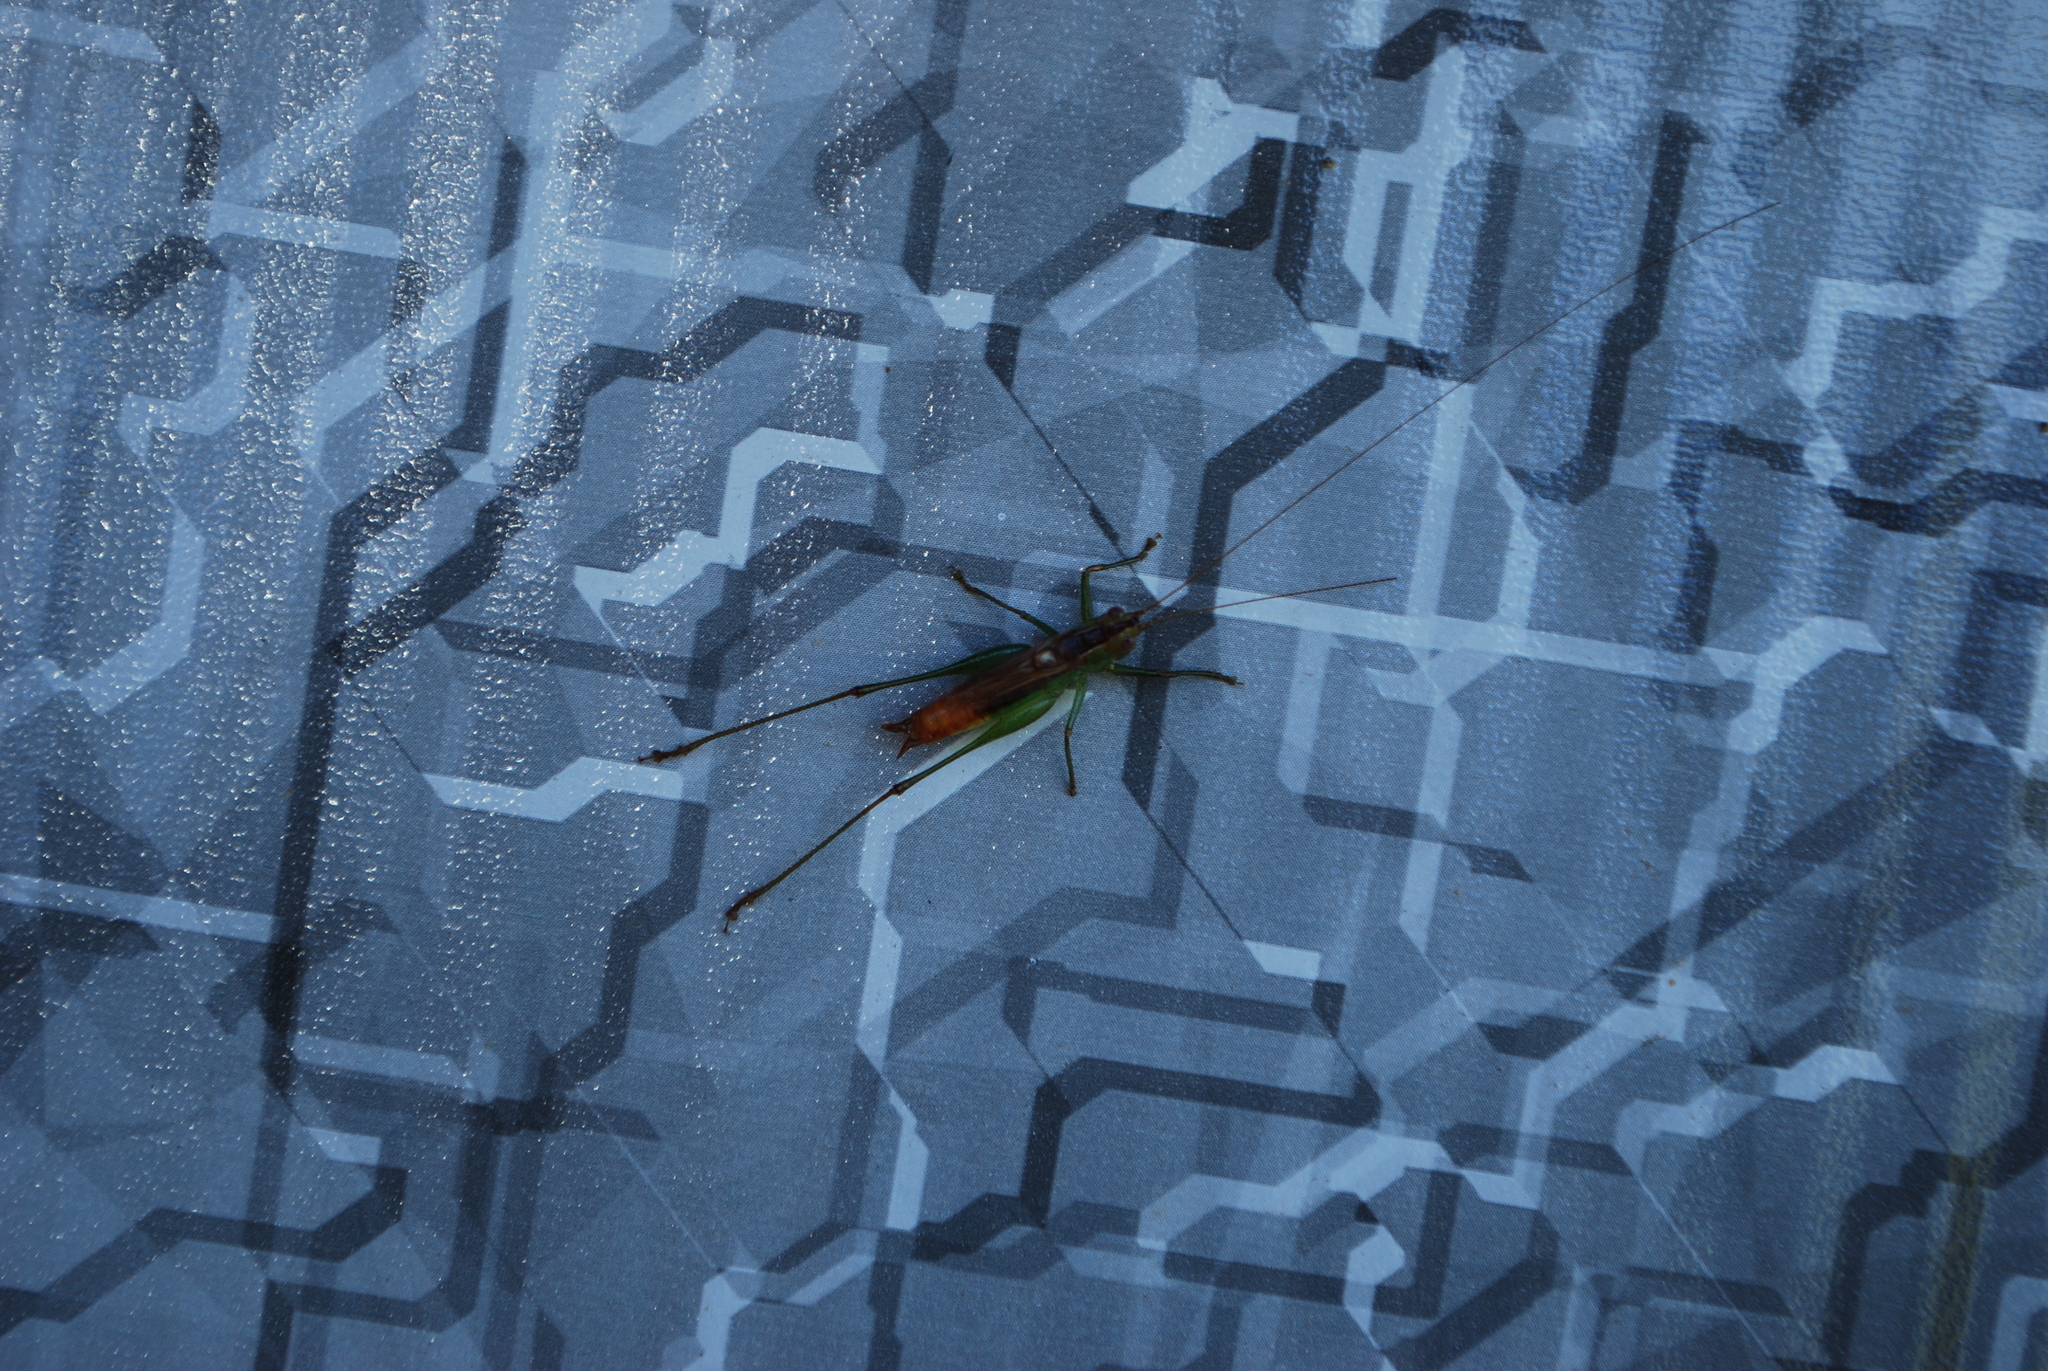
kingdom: Animalia
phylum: Arthropoda
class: Insecta
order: Orthoptera
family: Tettigoniidae
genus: Conocephalus
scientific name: Conocephalus brevipennis
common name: Short-winged meadow katydid
